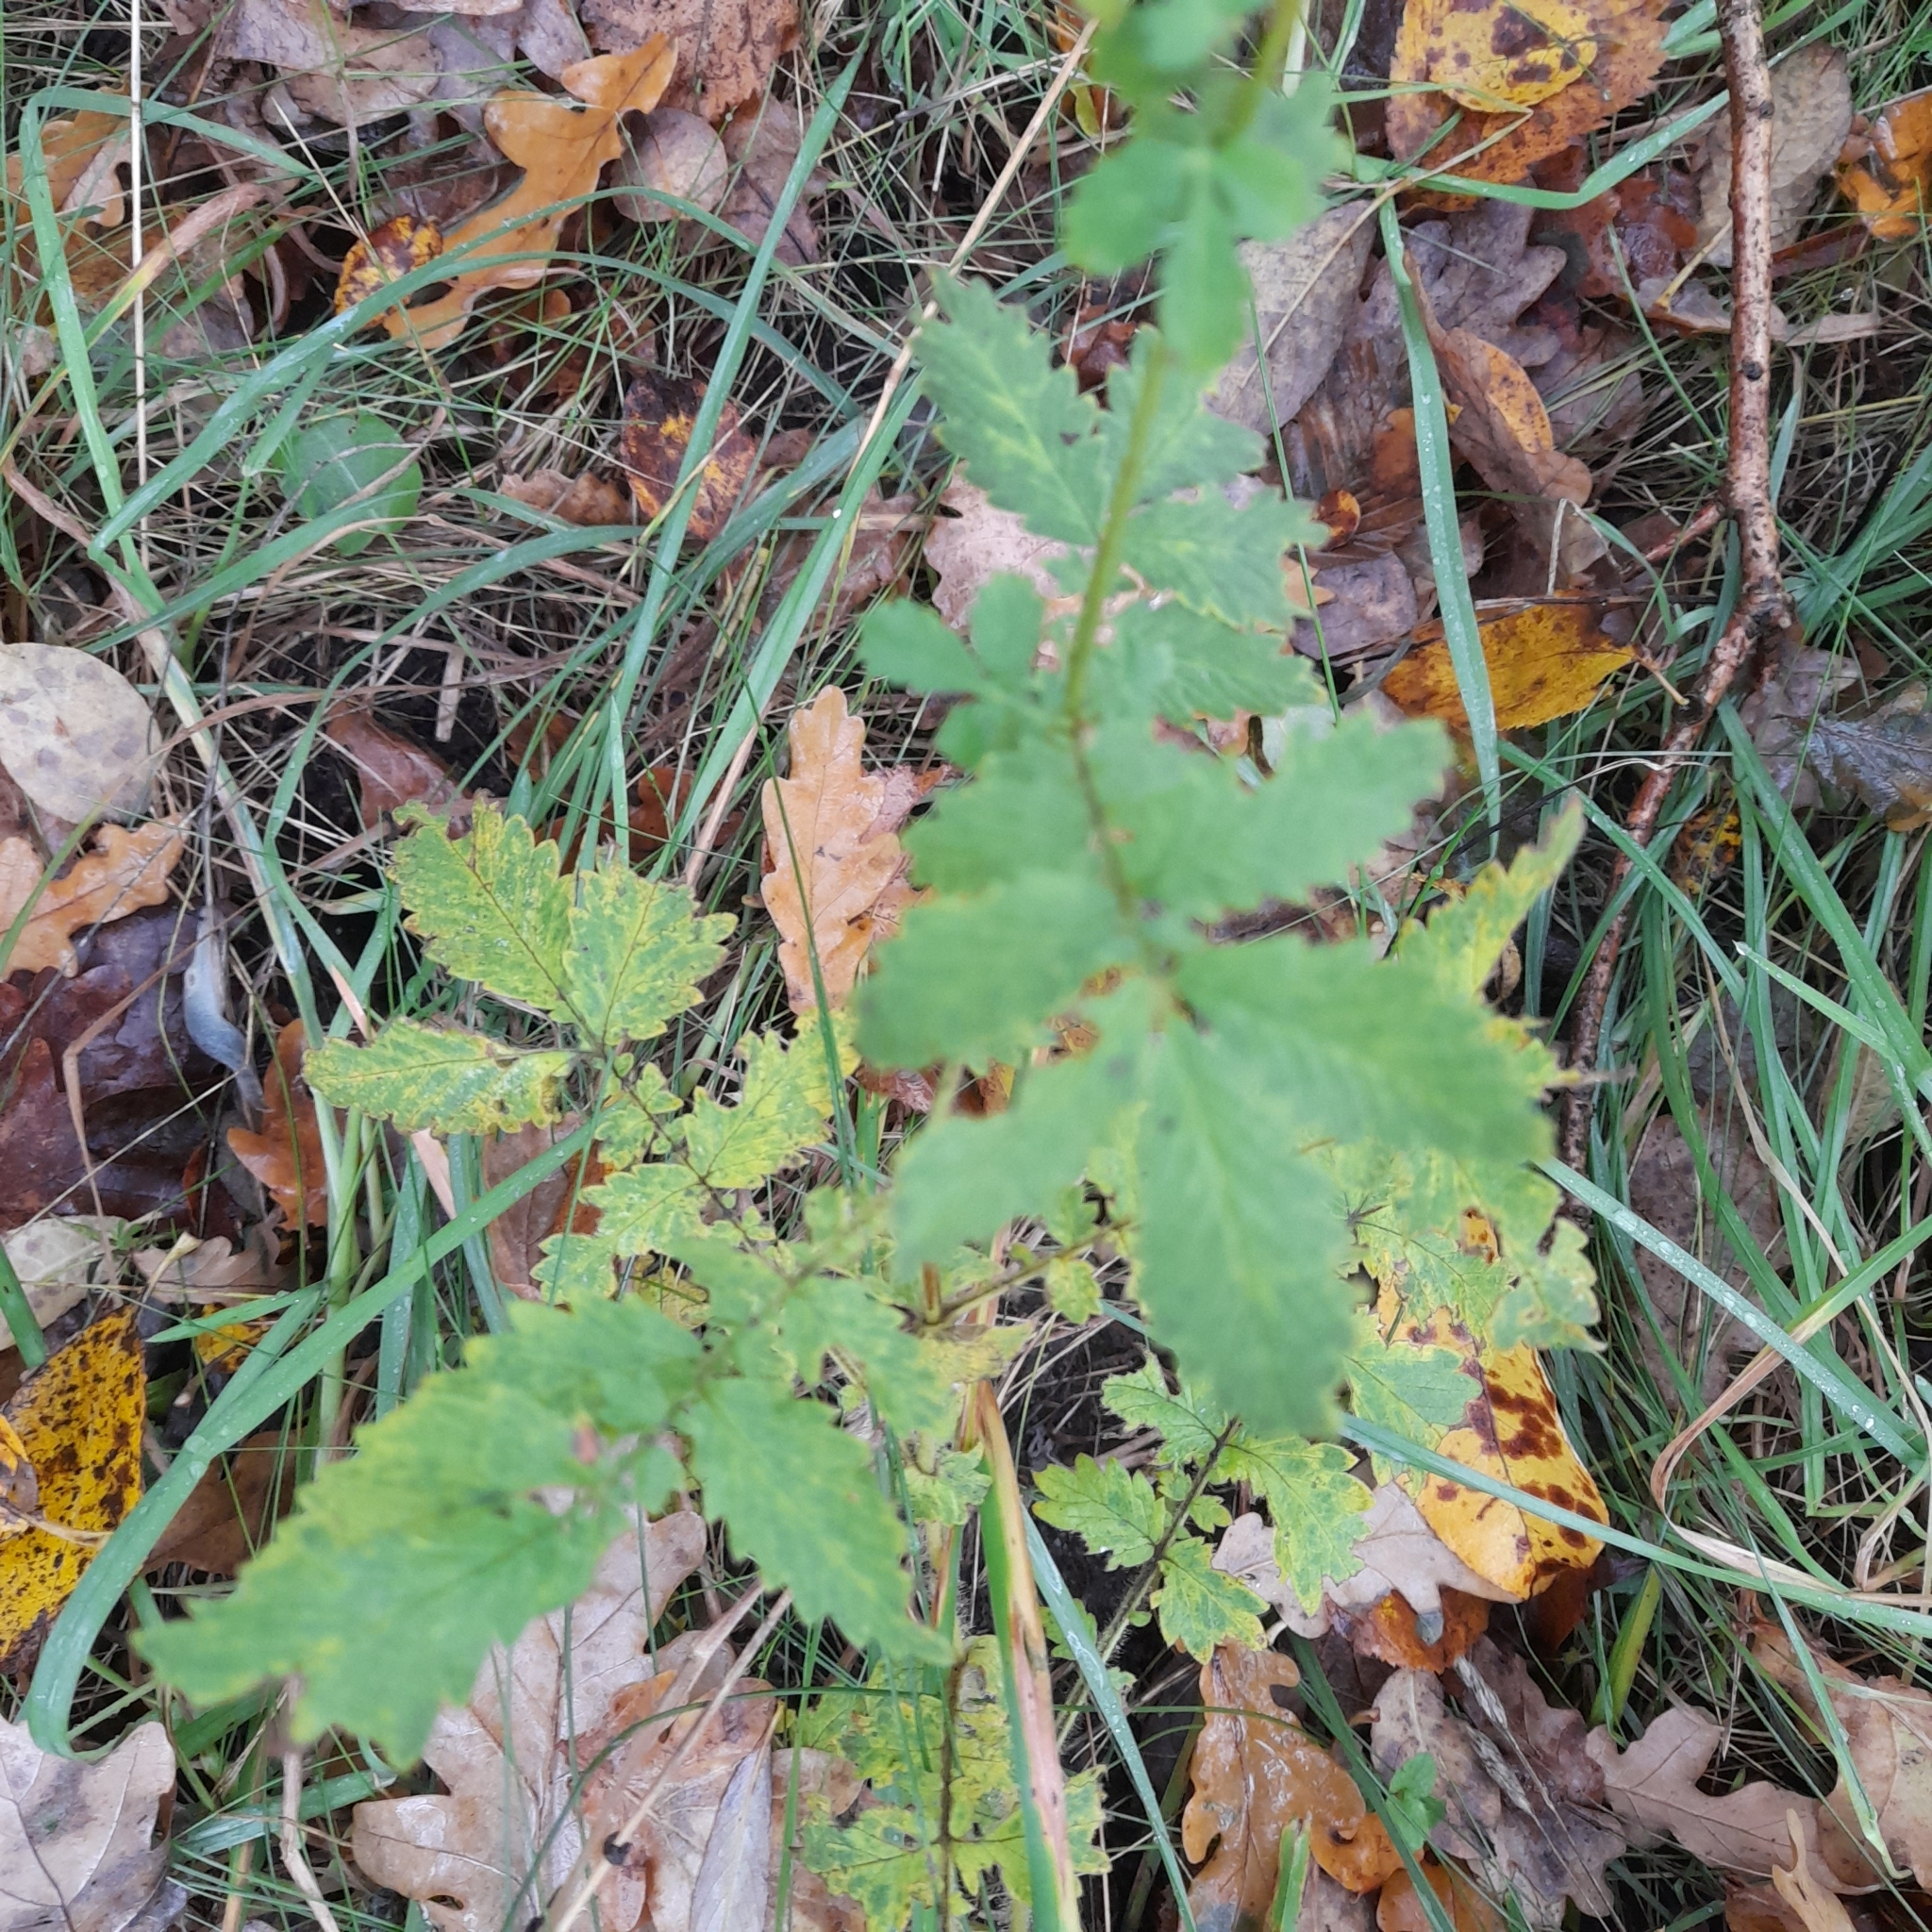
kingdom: Plantae
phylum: Tracheophyta
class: Magnoliopsida
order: Rosales
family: Rosaceae
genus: Agrimonia
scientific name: Agrimonia eupatoria
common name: Agrimony
